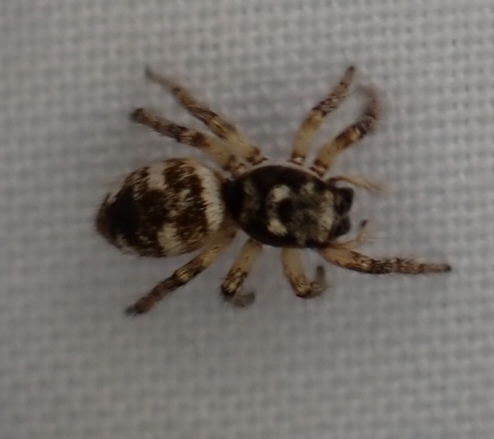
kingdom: Animalia
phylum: Arthropoda
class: Arachnida
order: Araneae
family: Salticidae
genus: Salticus
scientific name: Salticus scenicus
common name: Zebra jumper
